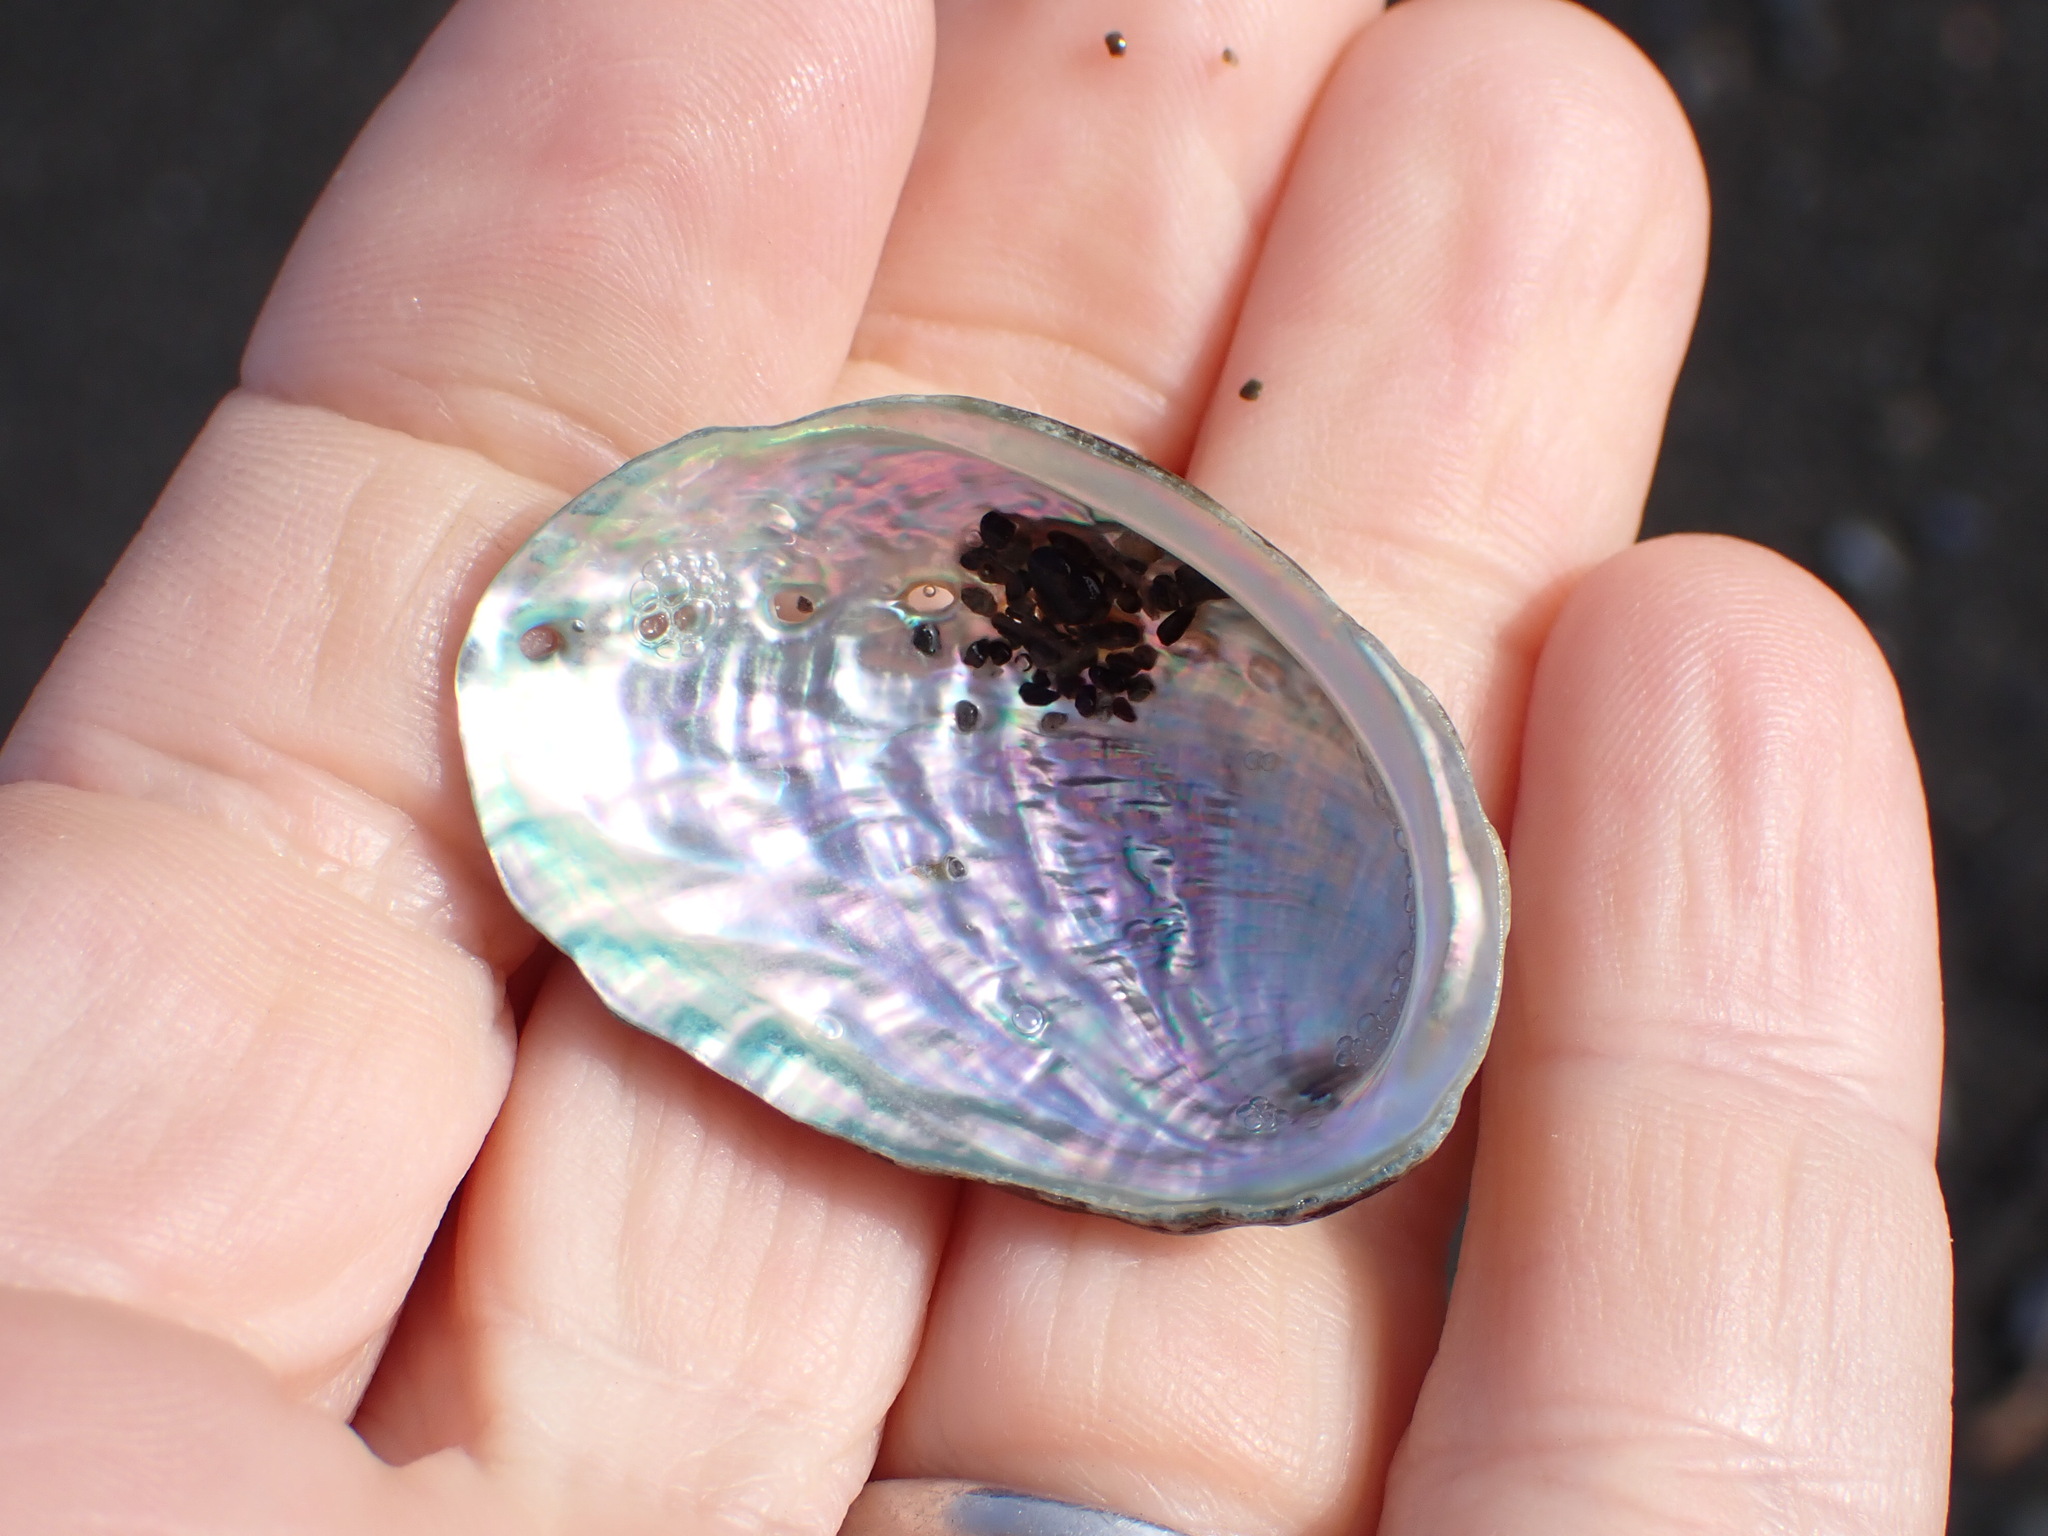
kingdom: Animalia
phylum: Mollusca
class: Gastropoda
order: Lepetellida
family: Haliotidae
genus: Haliotis
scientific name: Haliotis iris
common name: Abalone
